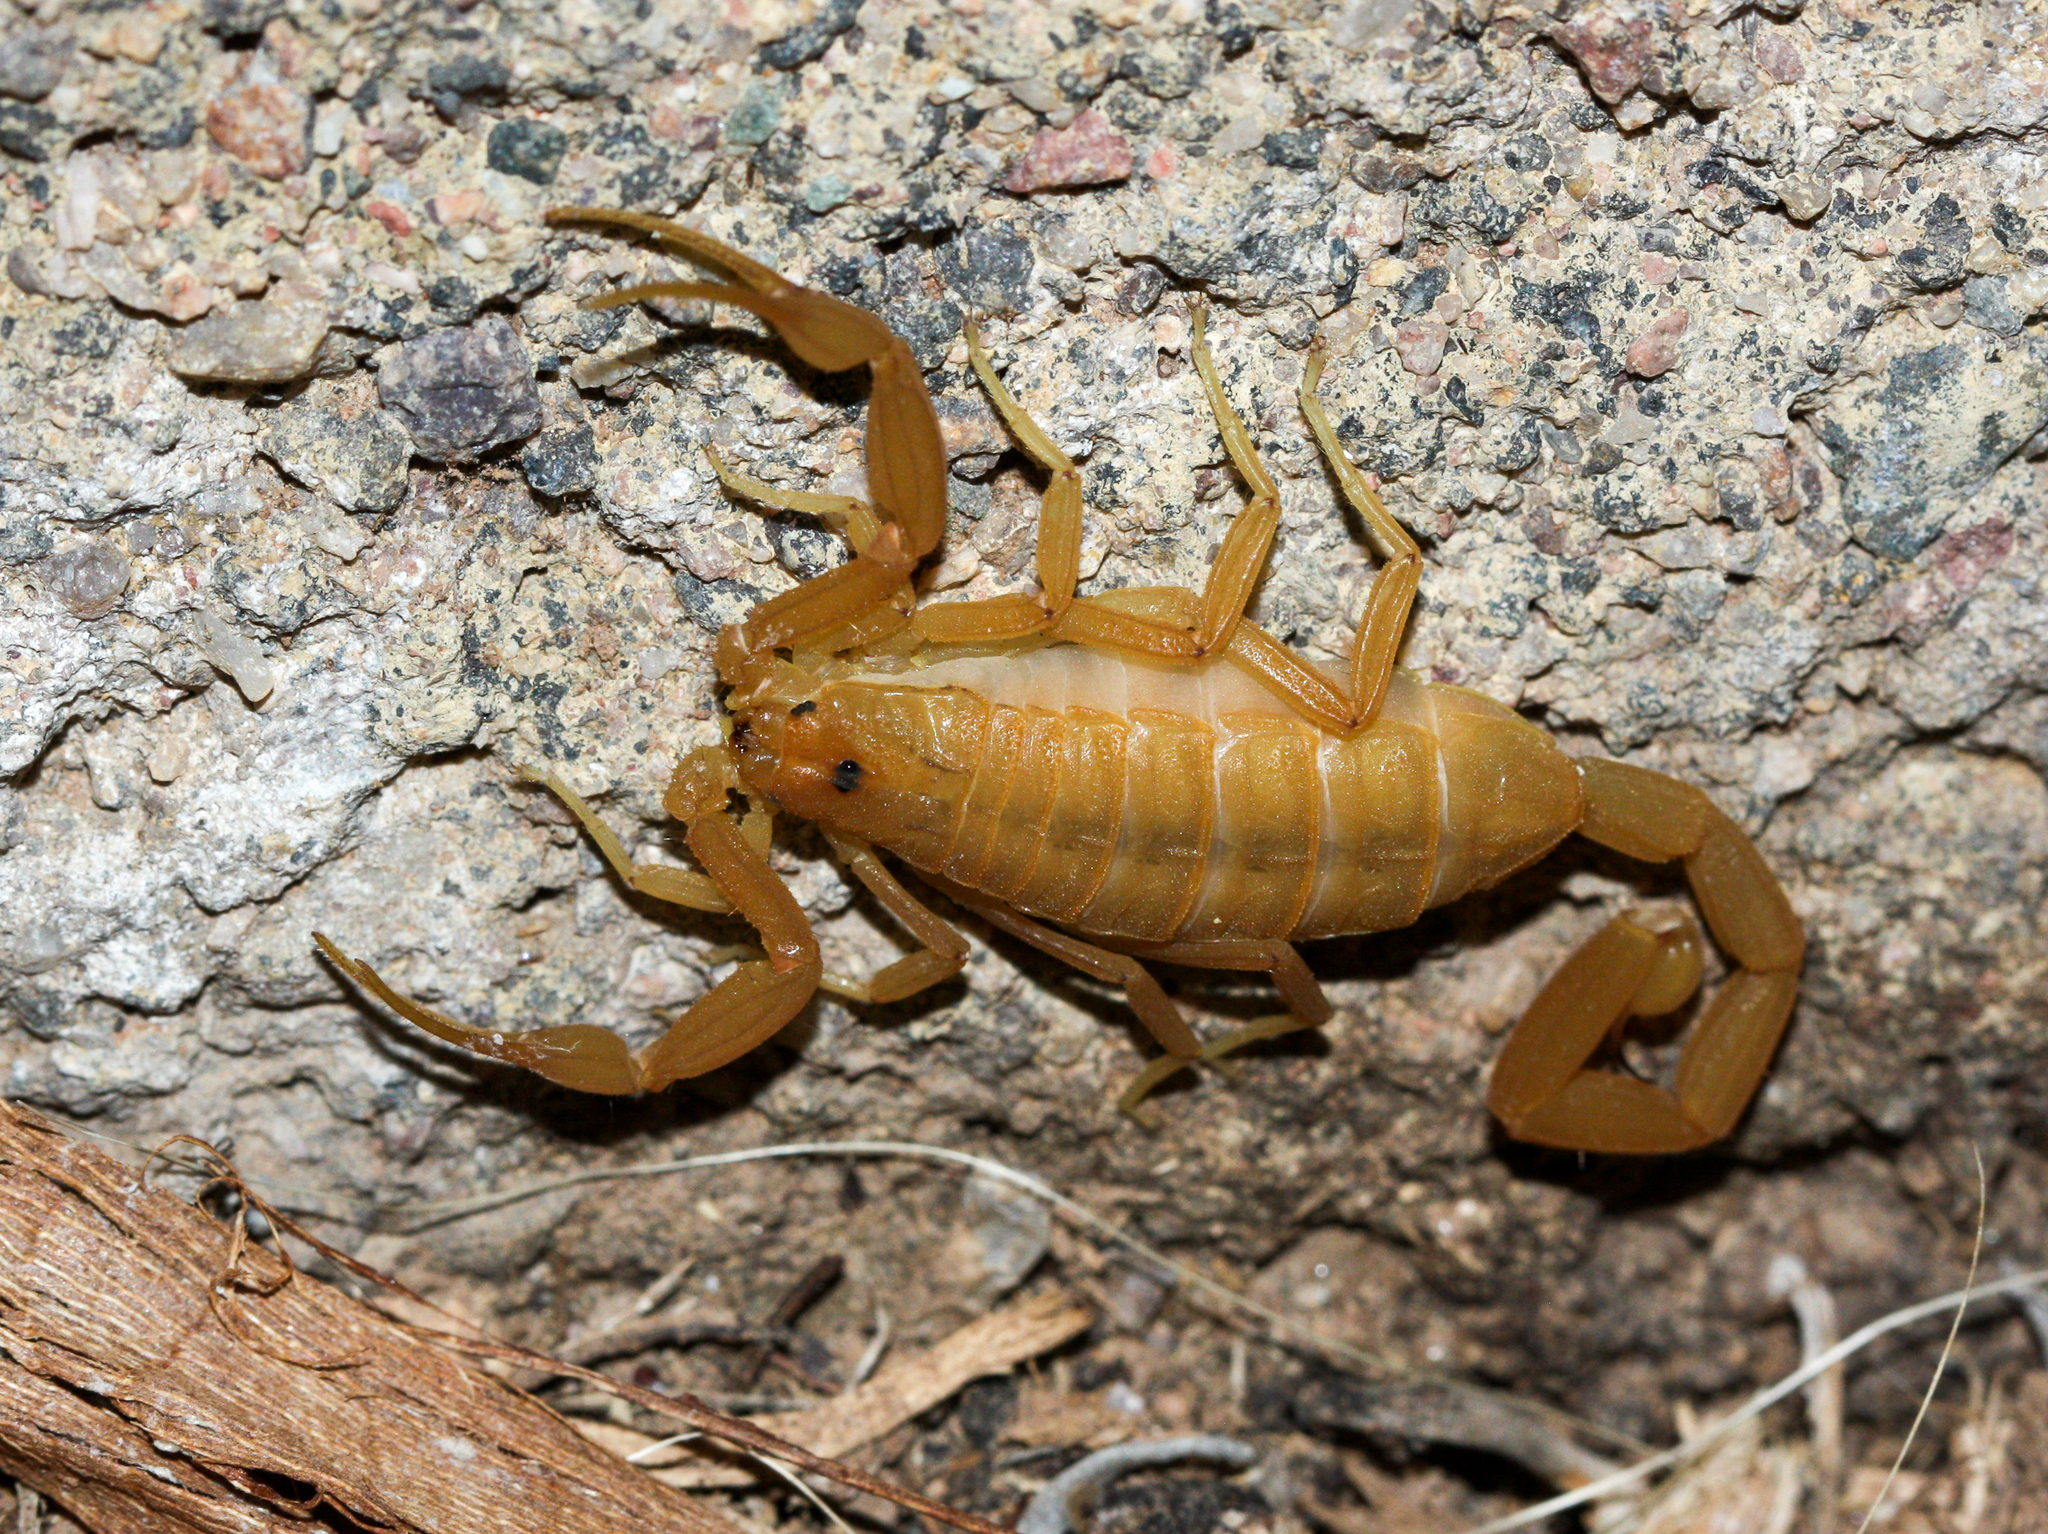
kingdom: Animalia
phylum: Arthropoda
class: Arachnida
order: Scorpiones
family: Buthidae
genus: Centruroides
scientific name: Centruroides sculpturatus
